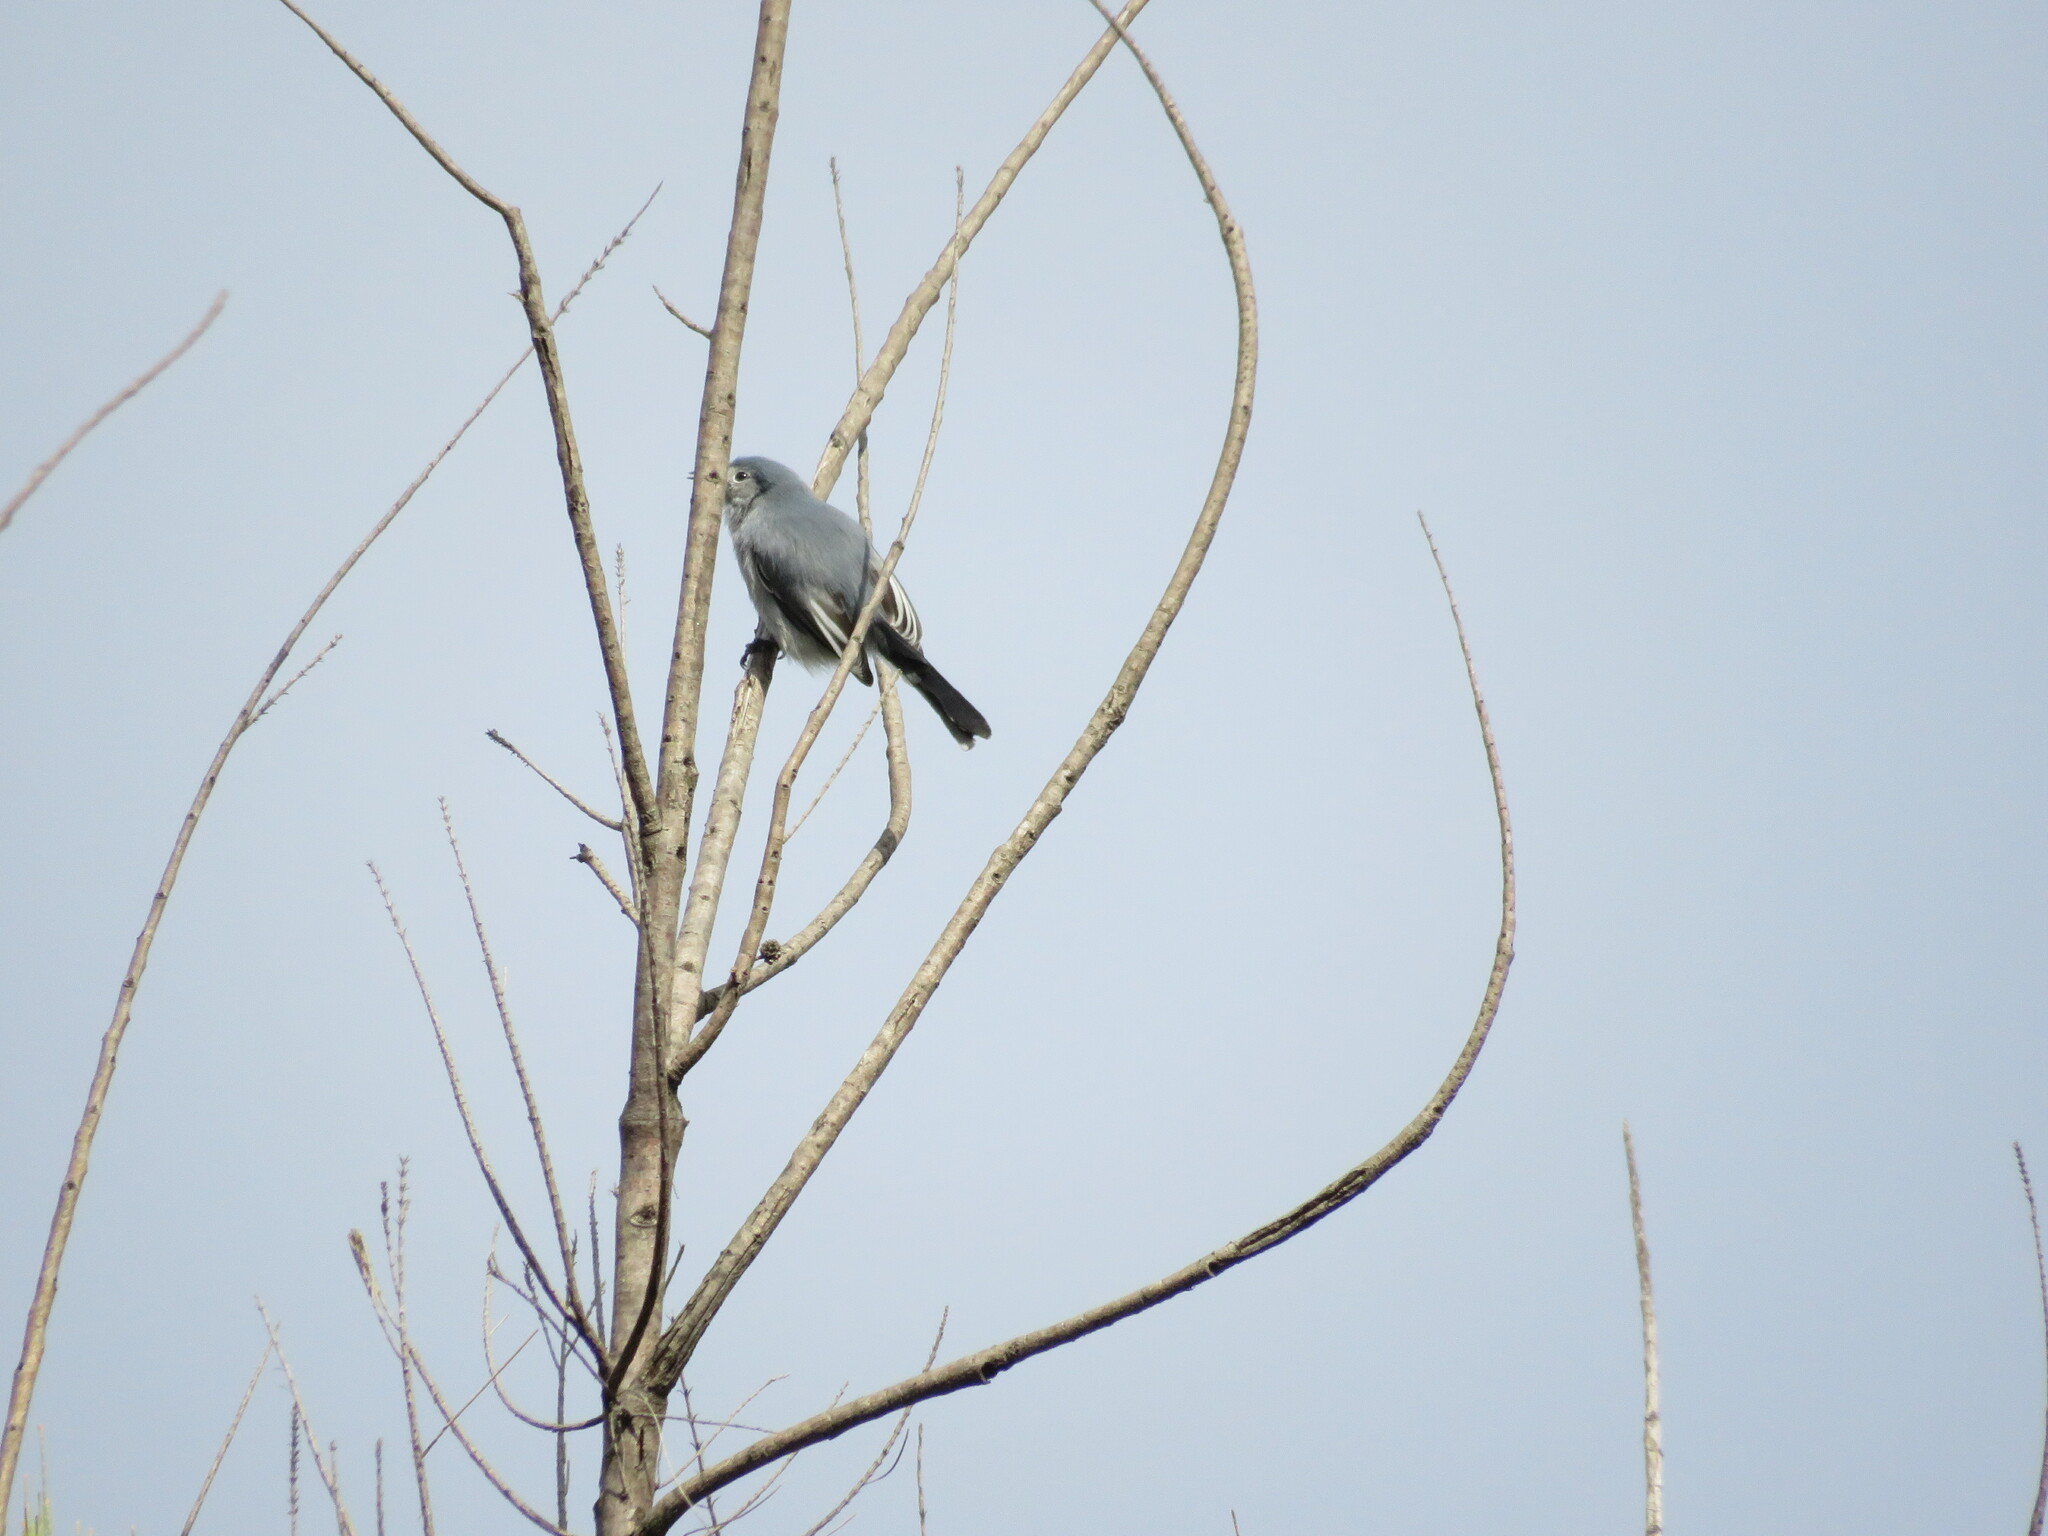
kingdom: Animalia
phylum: Chordata
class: Aves
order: Passeriformes
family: Polioptilidae
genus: Polioptila
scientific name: Polioptila dumicola
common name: Masked gnatcatcher
